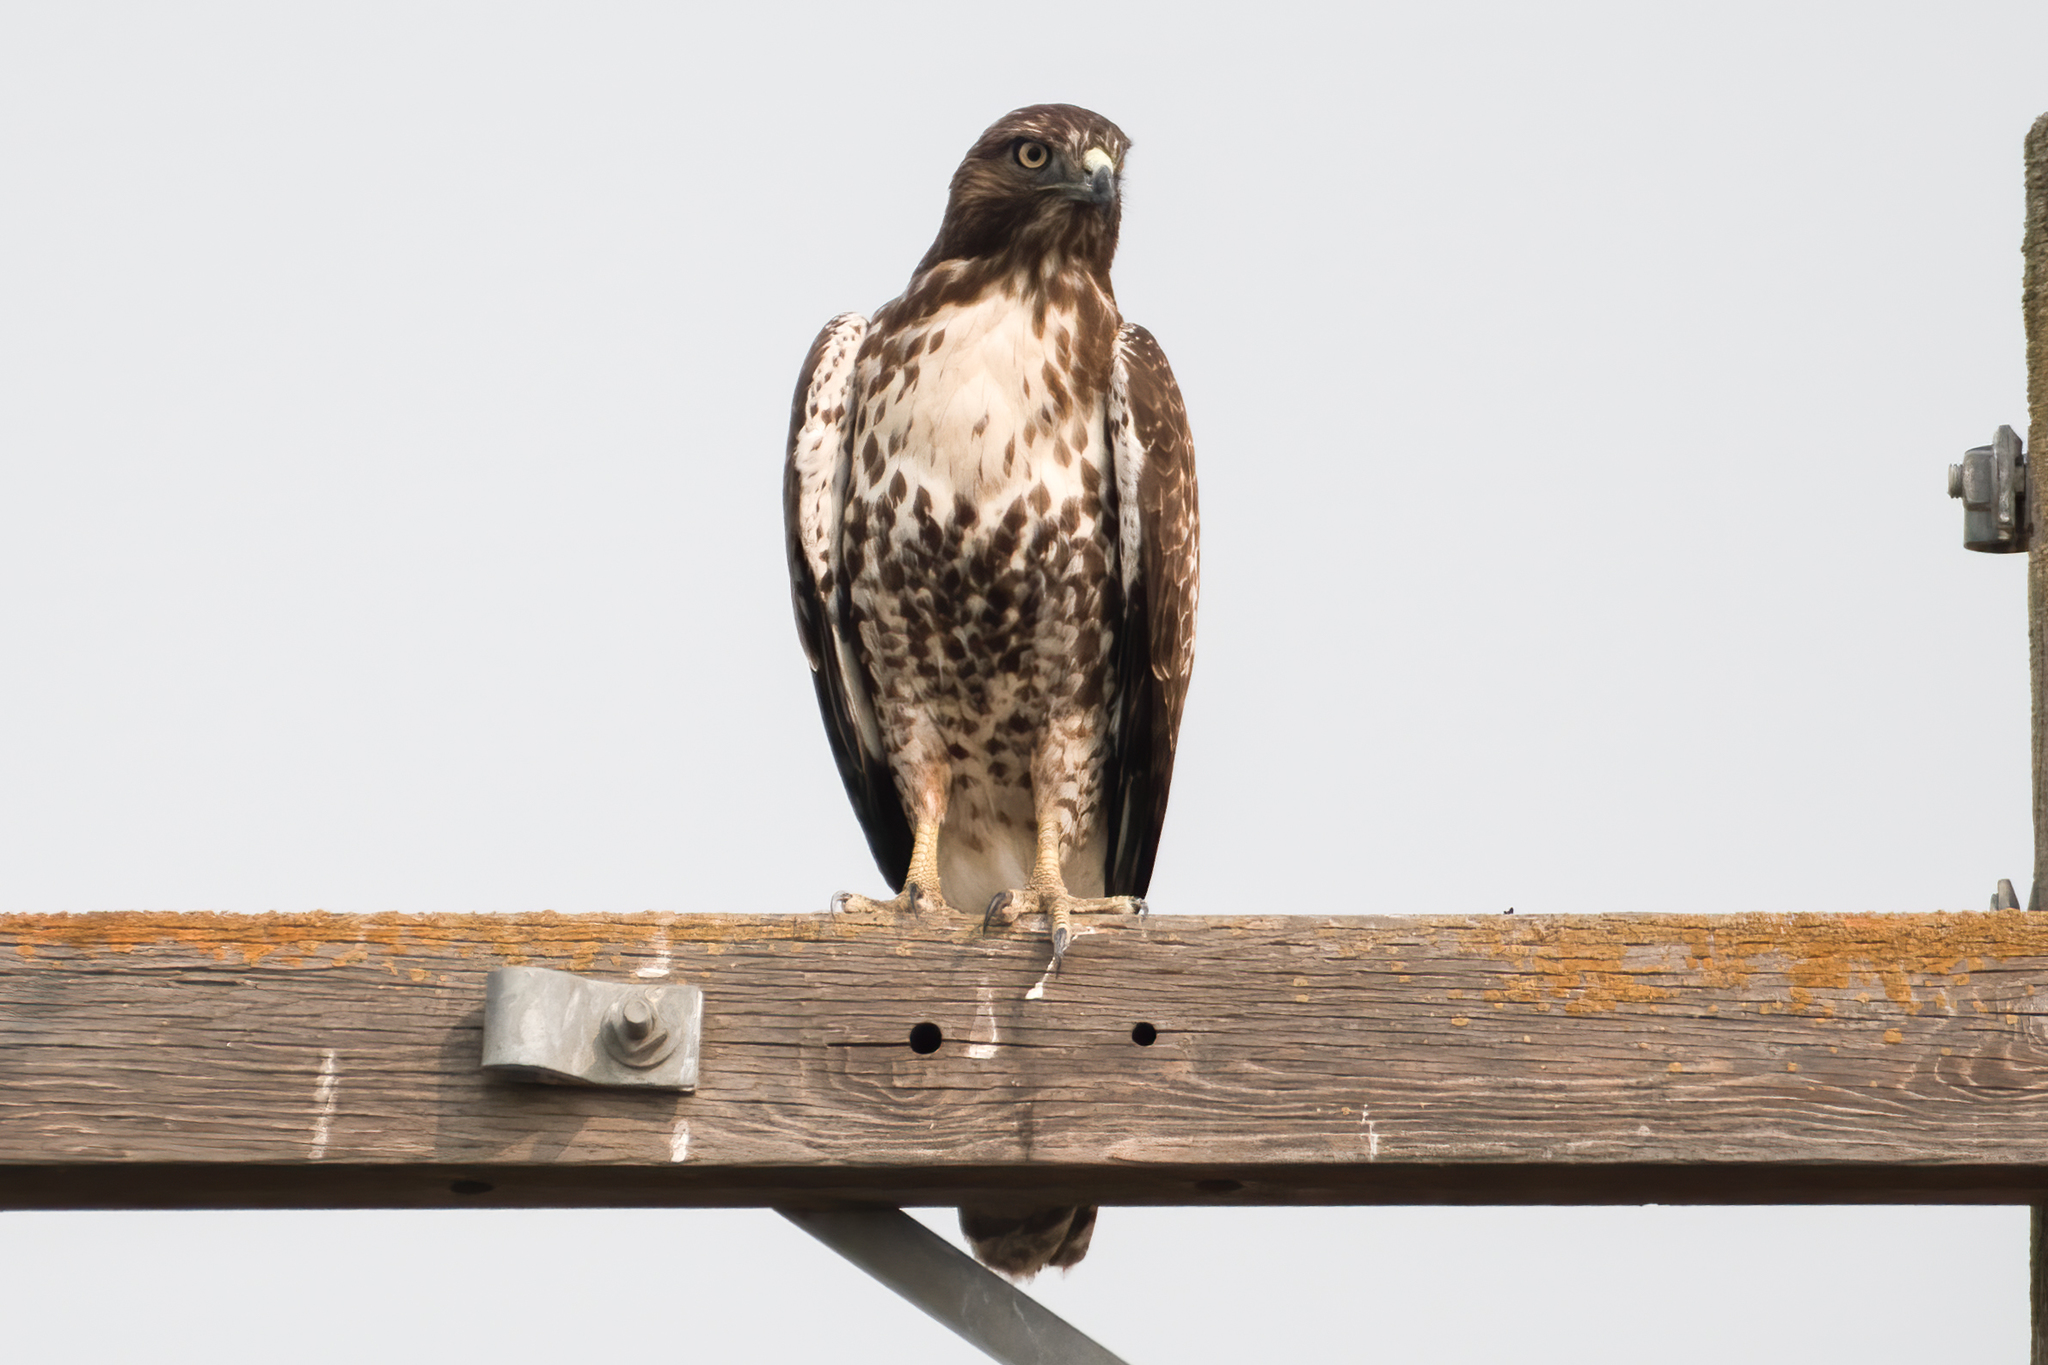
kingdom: Animalia
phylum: Chordata
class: Aves
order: Accipitriformes
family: Accipitridae
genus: Buteo
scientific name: Buteo jamaicensis
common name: Red-tailed hawk
